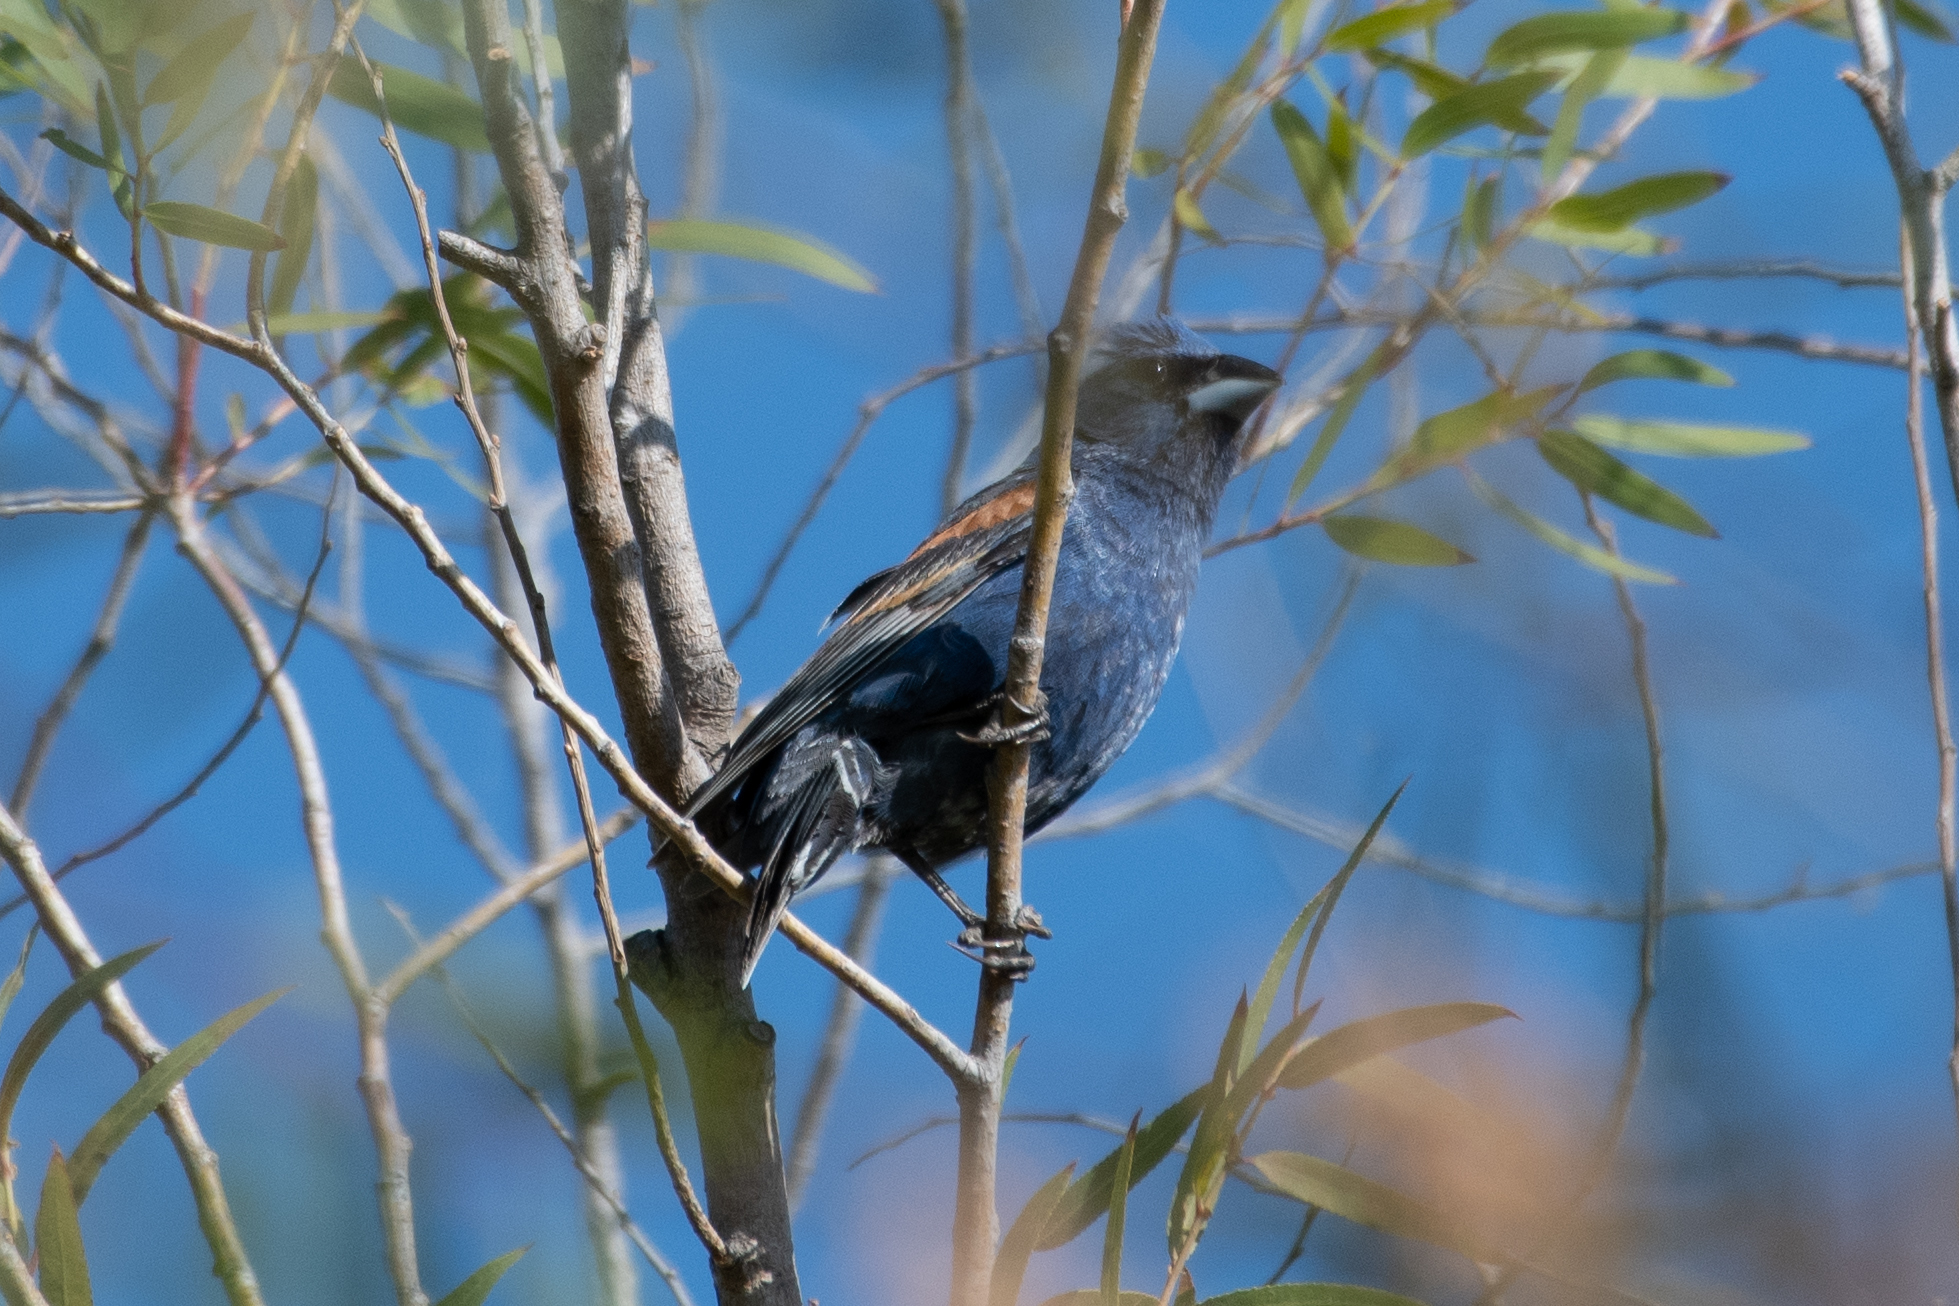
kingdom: Animalia
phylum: Chordata
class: Aves
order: Passeriformes
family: Cardinalidae
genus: Passerina
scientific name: Passerina caerulea
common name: Blue grosbeak
